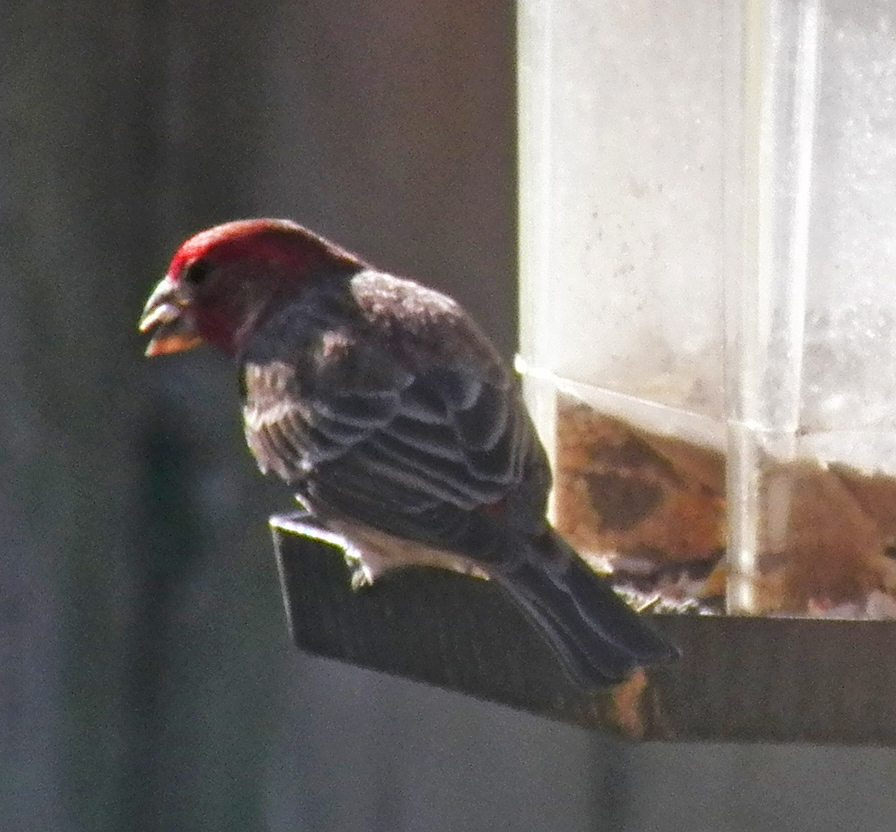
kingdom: Animalia
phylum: Chordata
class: Aves
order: Passeriformes
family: Fringillidae
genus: Haemorhous
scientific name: Haemorhous mexicanus
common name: House finch
